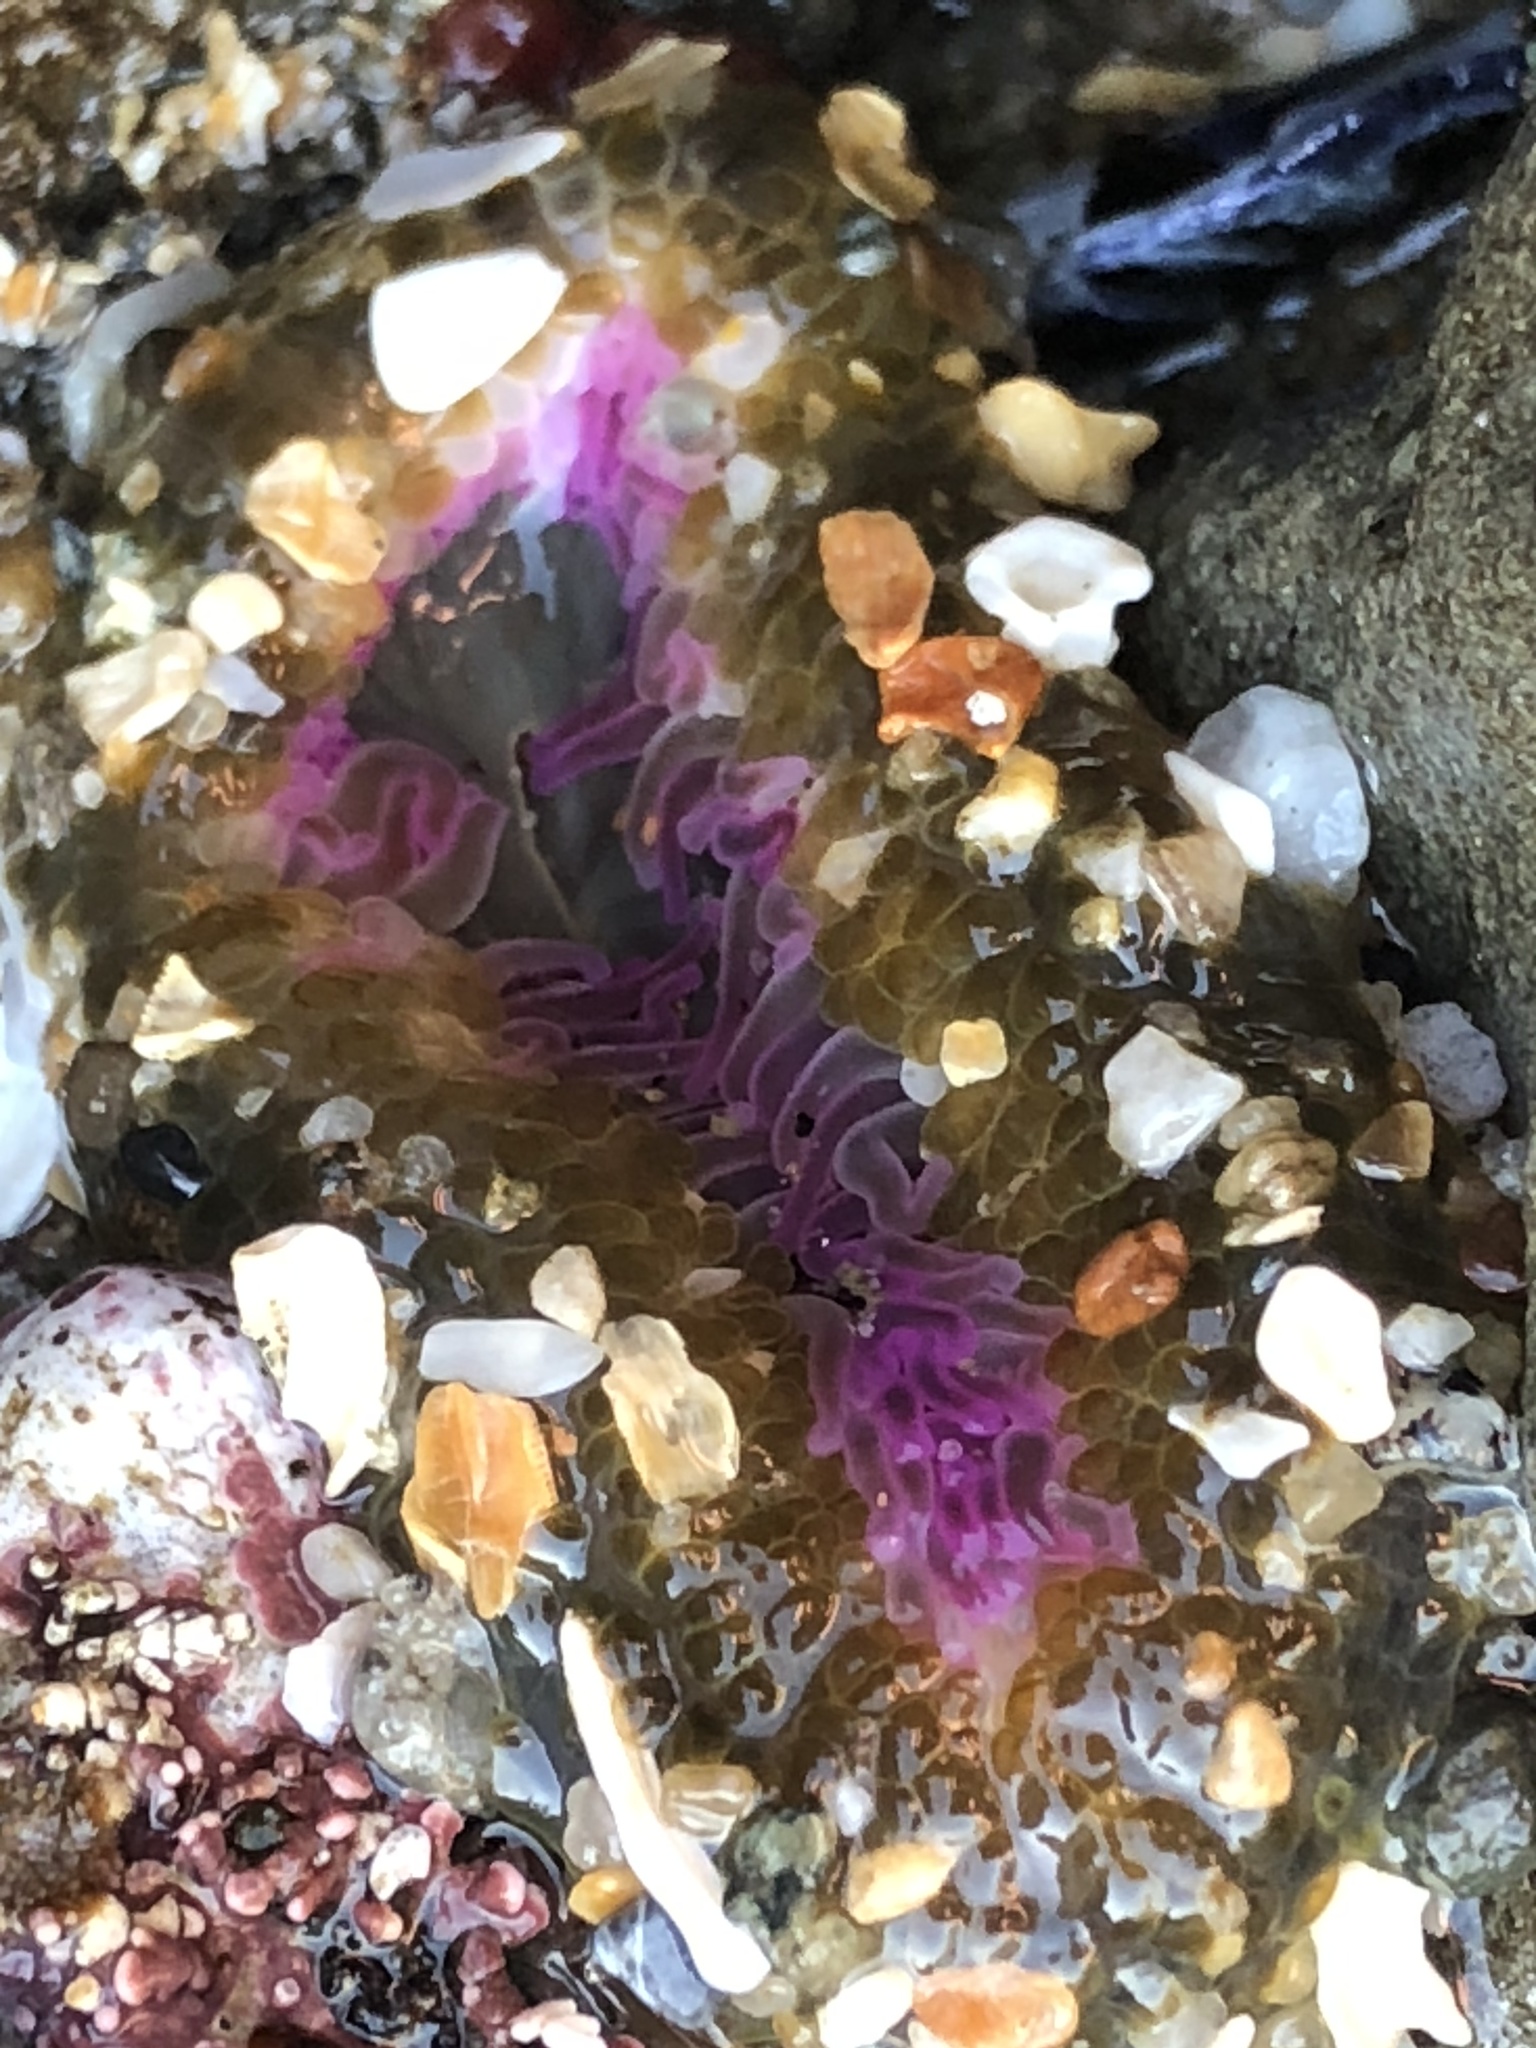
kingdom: Animalia
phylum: Cnidaria
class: Anthozoa
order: Actiniaria
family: Actiniidae
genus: Anthopleura
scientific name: Anthopleura elegantissima
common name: Clonal anemone
